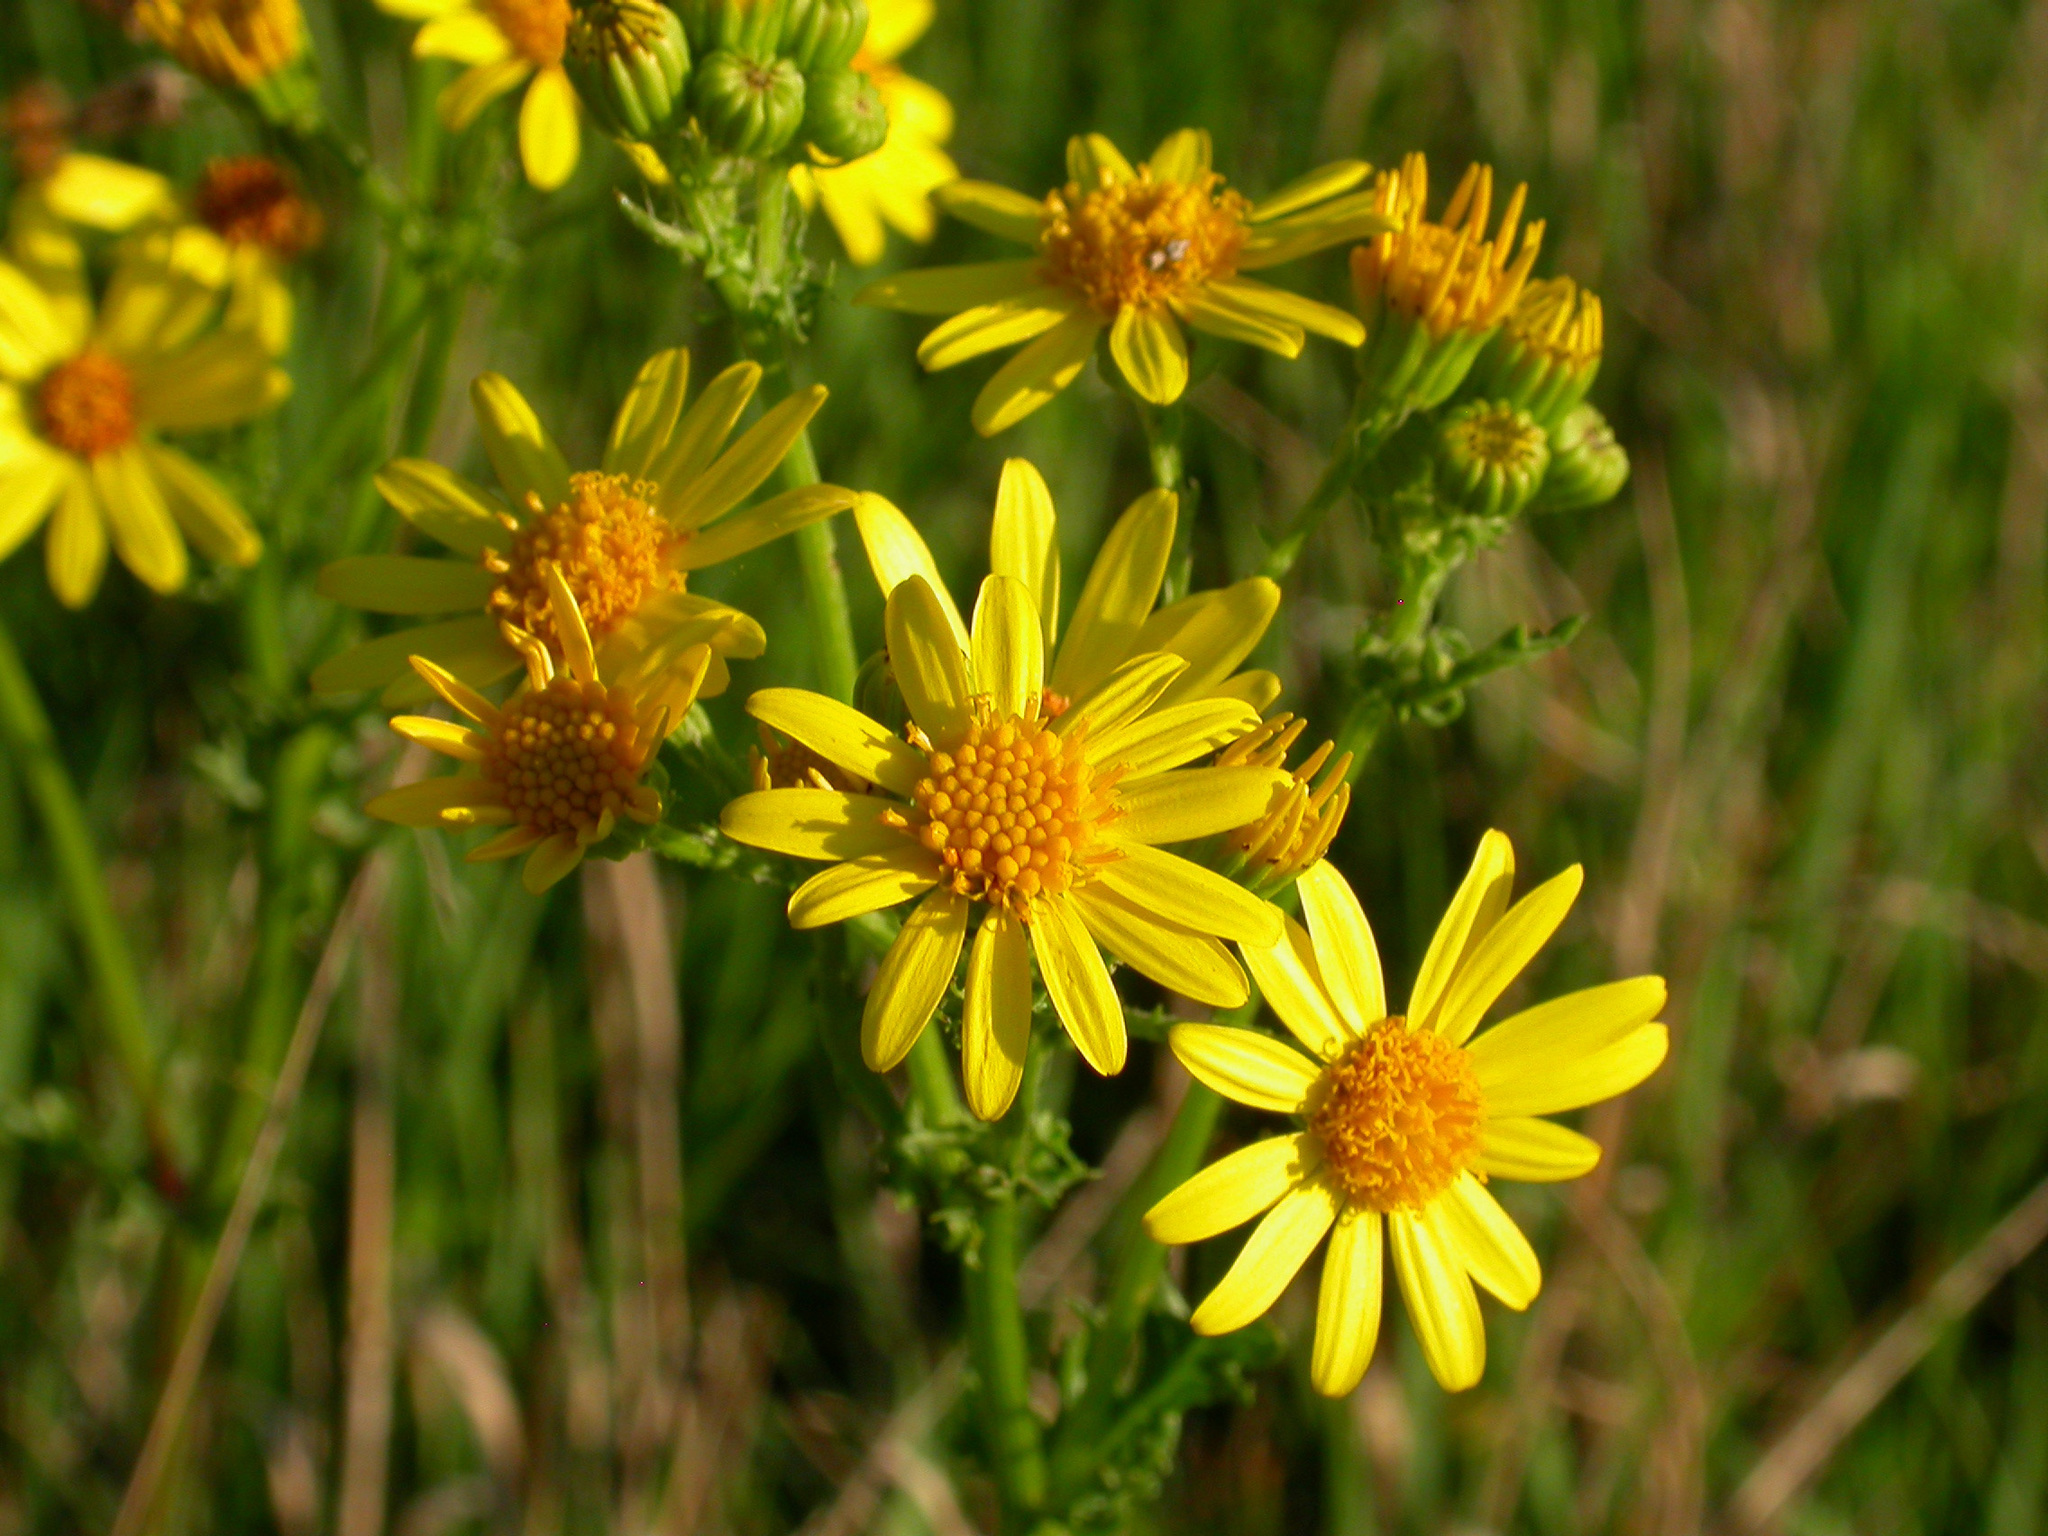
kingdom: Plantae
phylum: Tracheophyta
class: Magnoliopsida
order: Asterales
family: Asteraceae
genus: Jacobaea
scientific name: Jacobaea vulgaris
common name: Stinking willie
